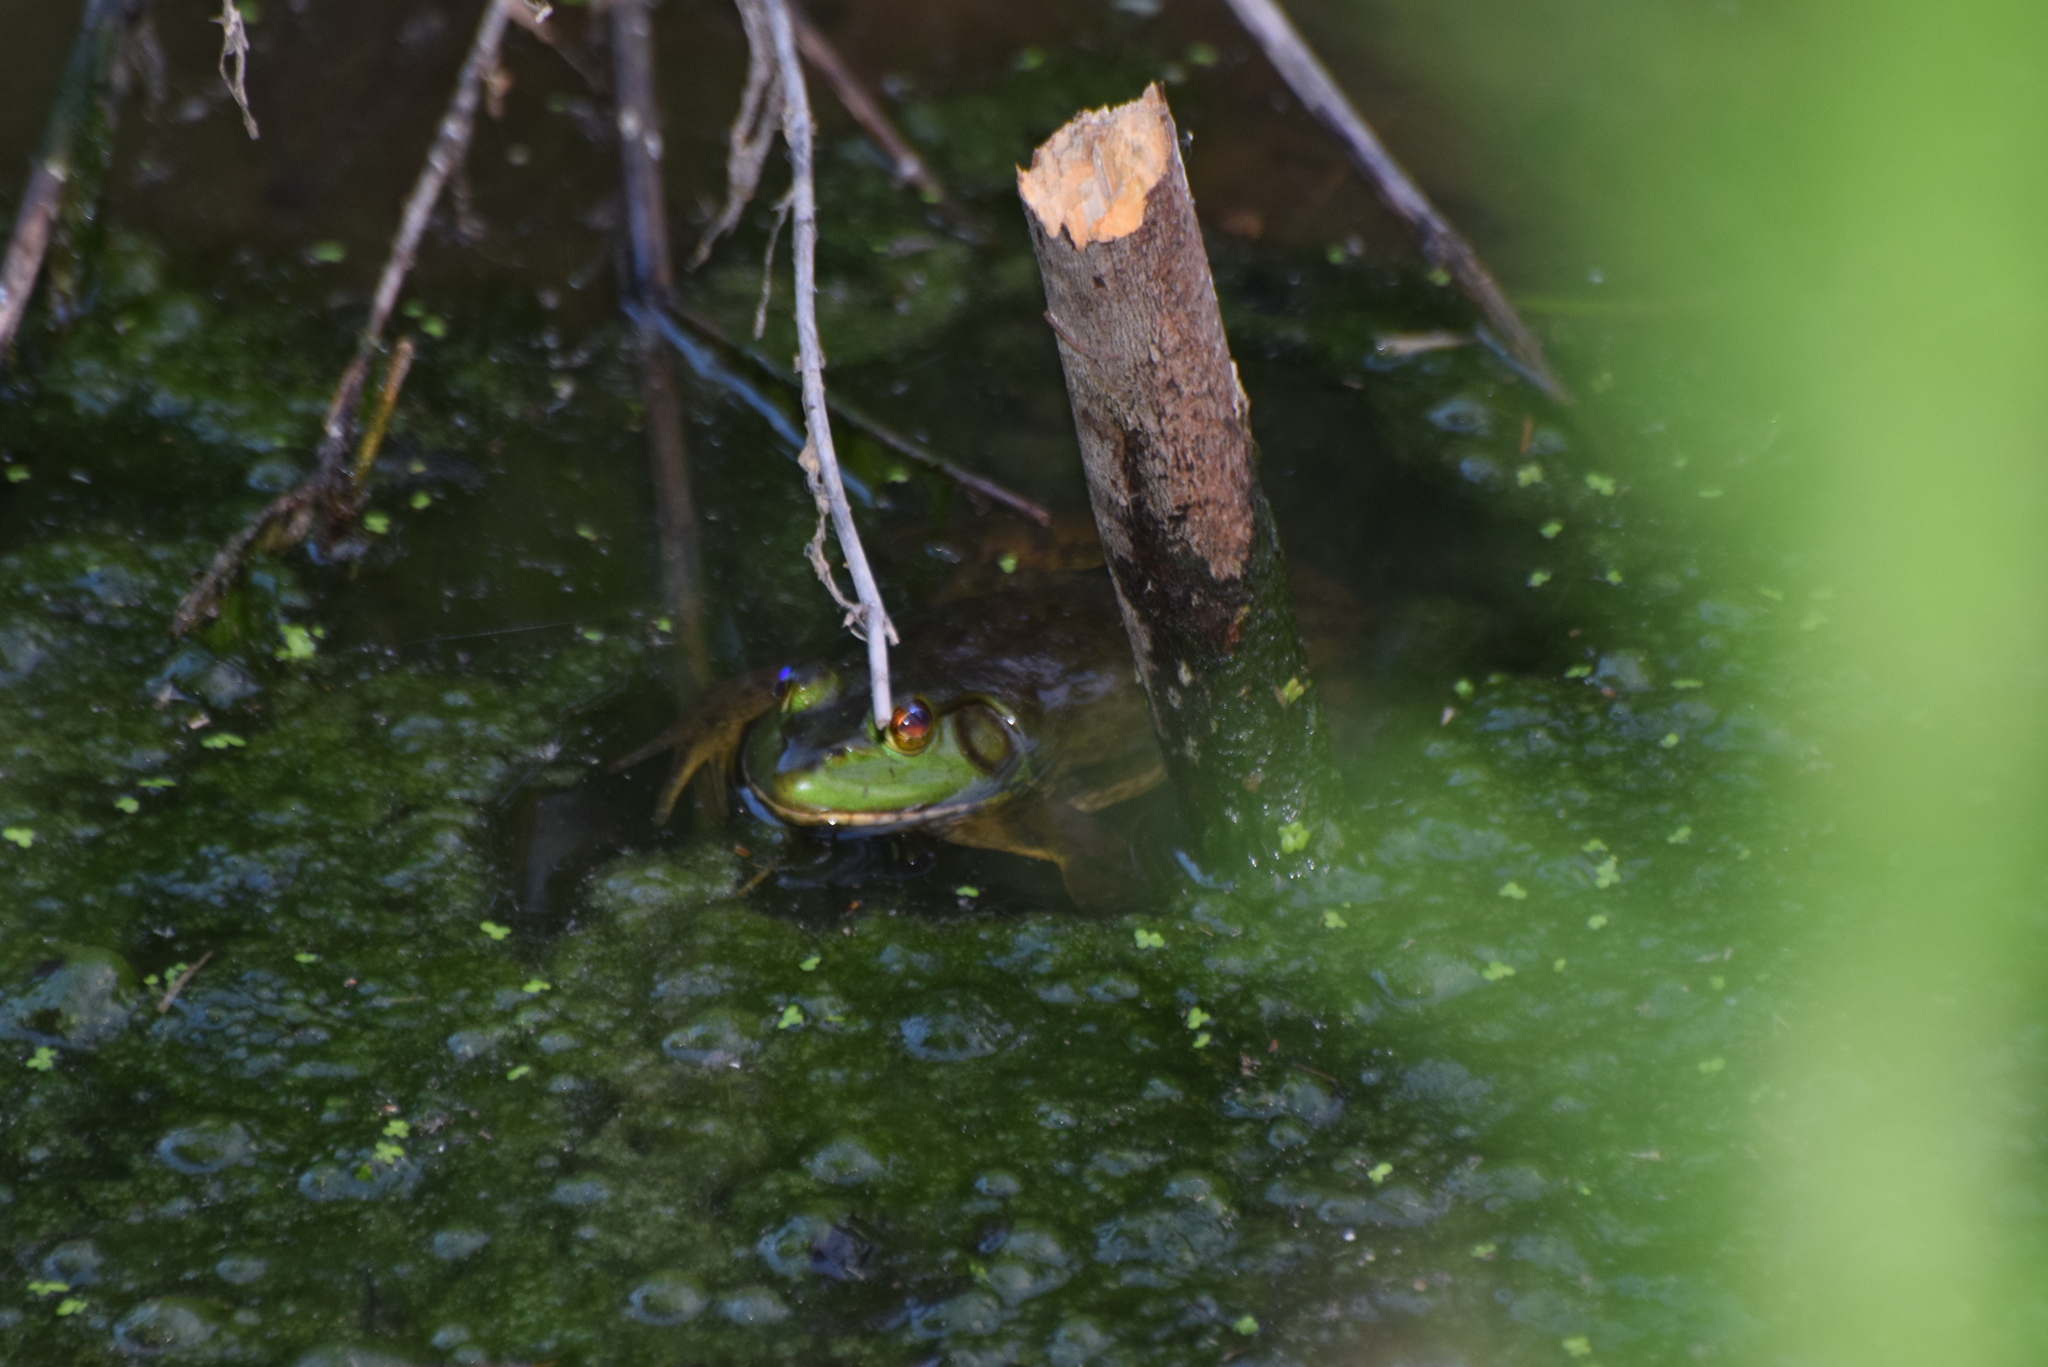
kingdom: Animalia
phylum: Chordata
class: Amphibia
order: Anura
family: Ranidae
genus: Lithobates
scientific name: Lithobates catesbeianus
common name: American bullfrog
